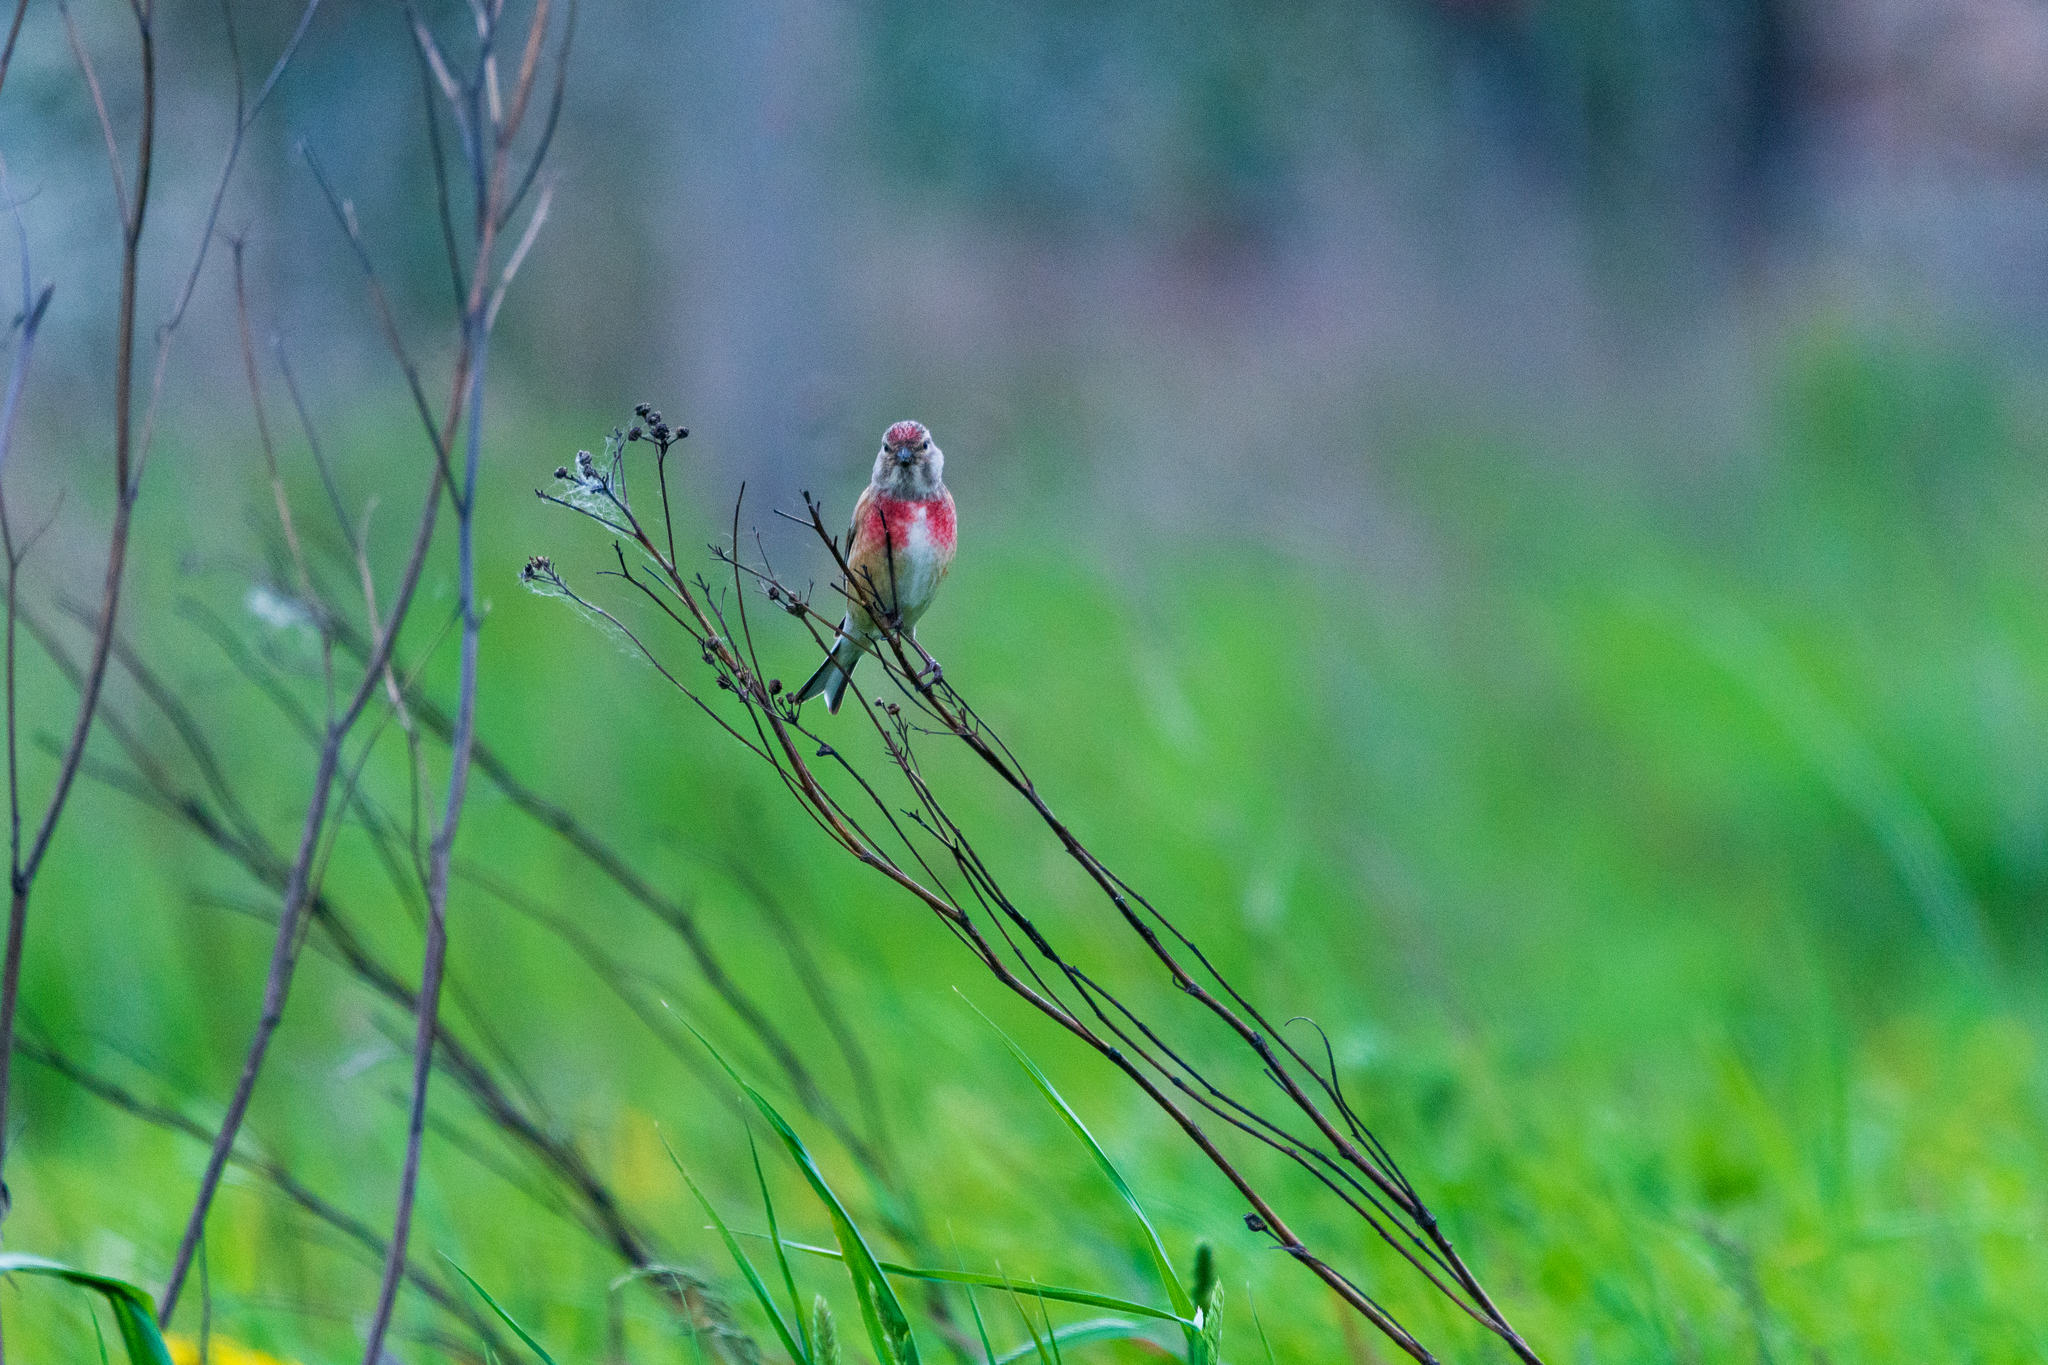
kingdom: Animalia
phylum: Chordata
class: Aves
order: Passeriformes
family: Fringillidae
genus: Linaria
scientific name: Linaria cannabina
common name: Common linnet
